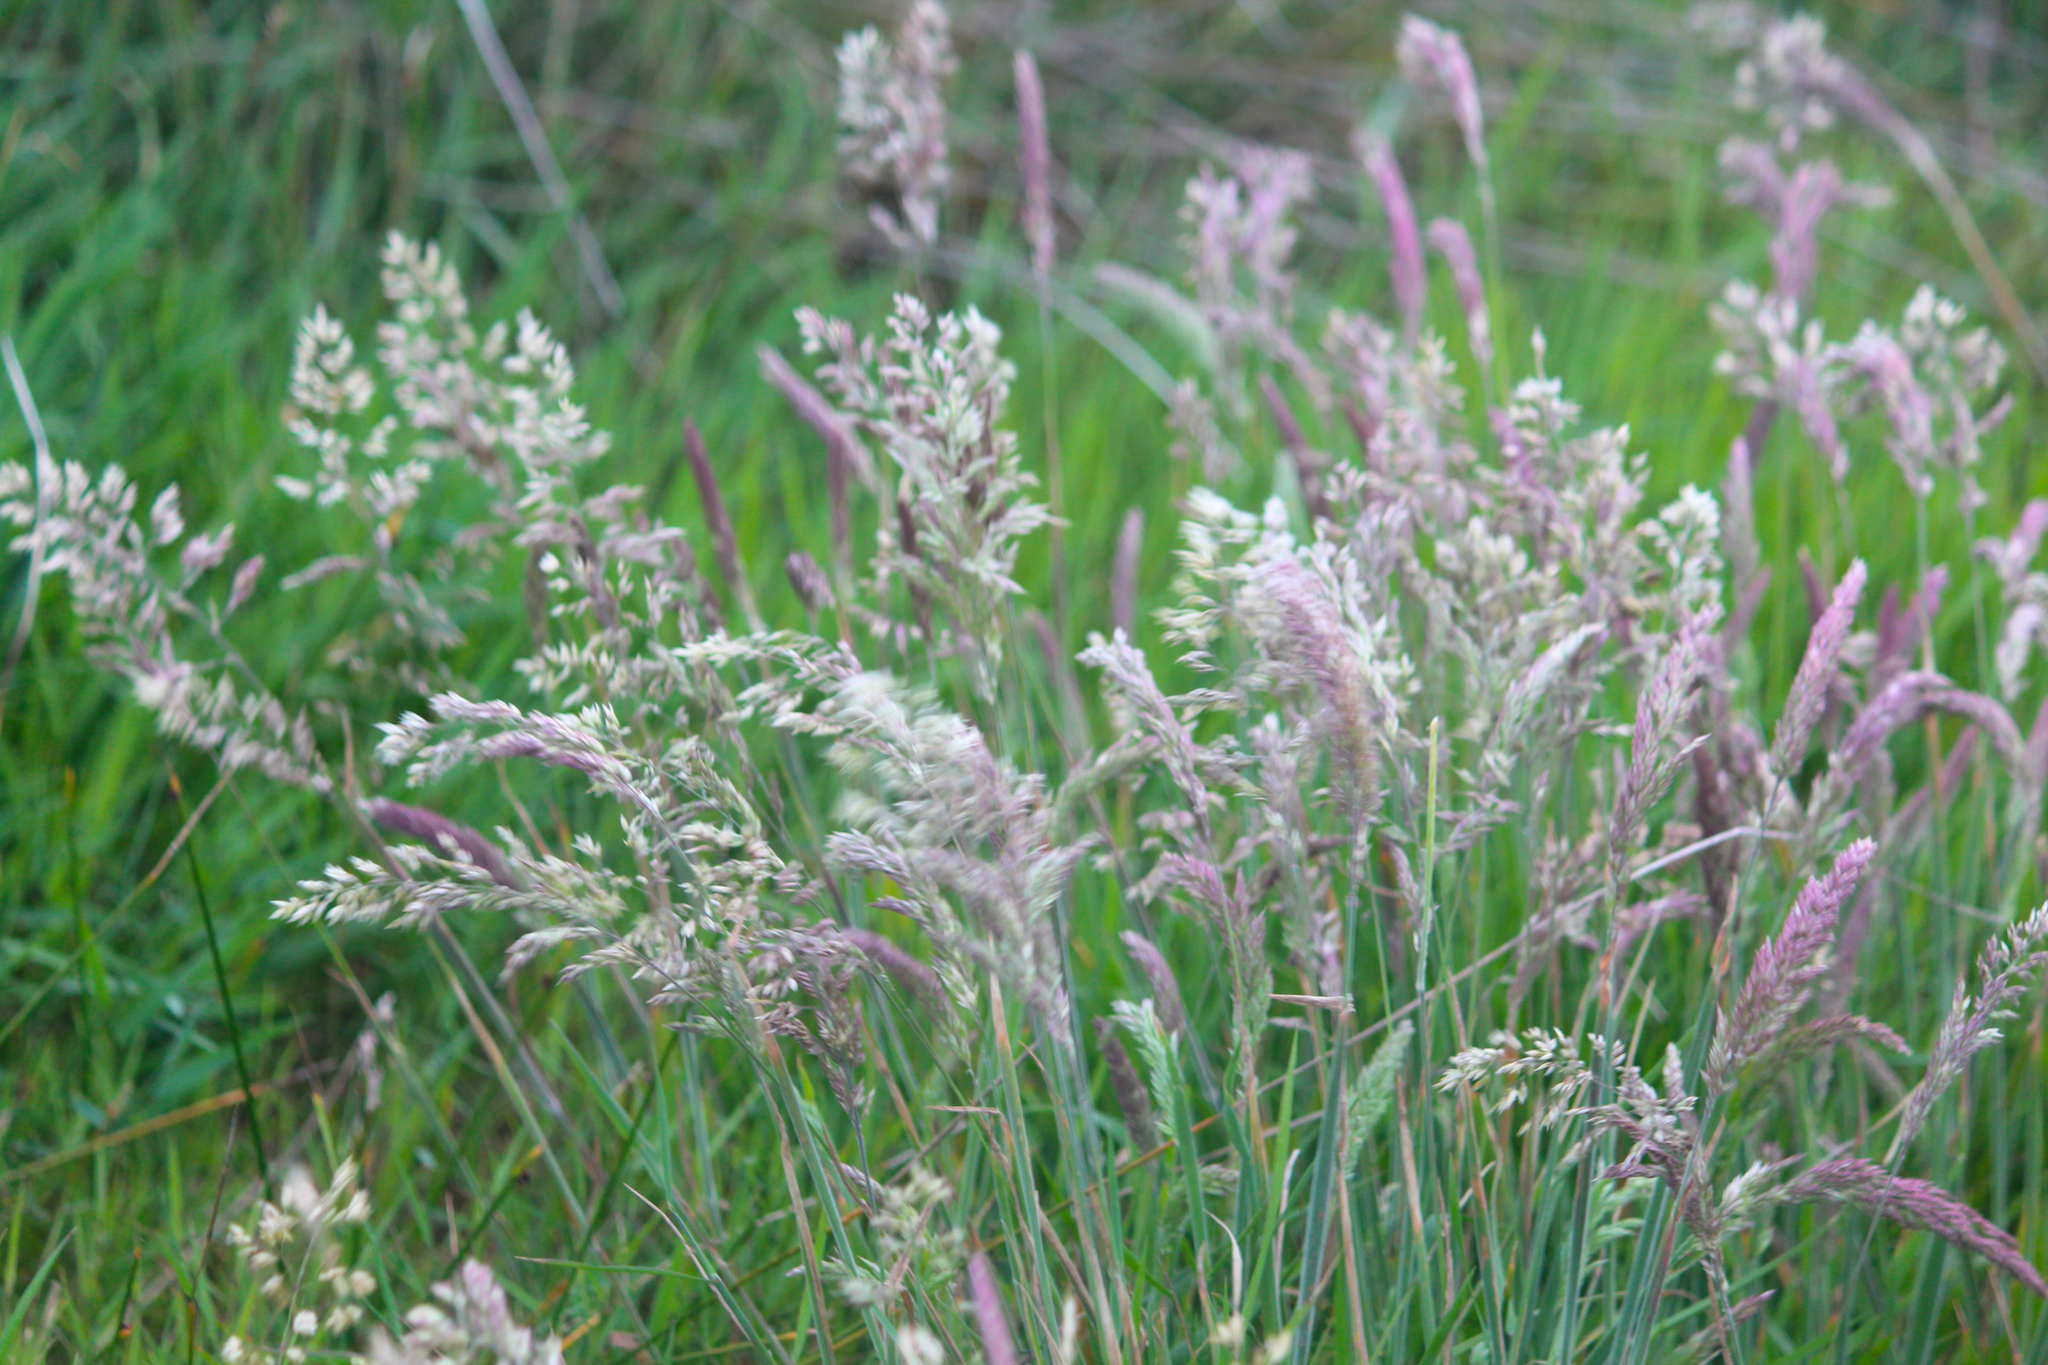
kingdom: Plantae
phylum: Tracheophyta
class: Liliopsida
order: Poales
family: Poaceae
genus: Holcus
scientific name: Holcus lanatus
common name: Yorkshire-fog
